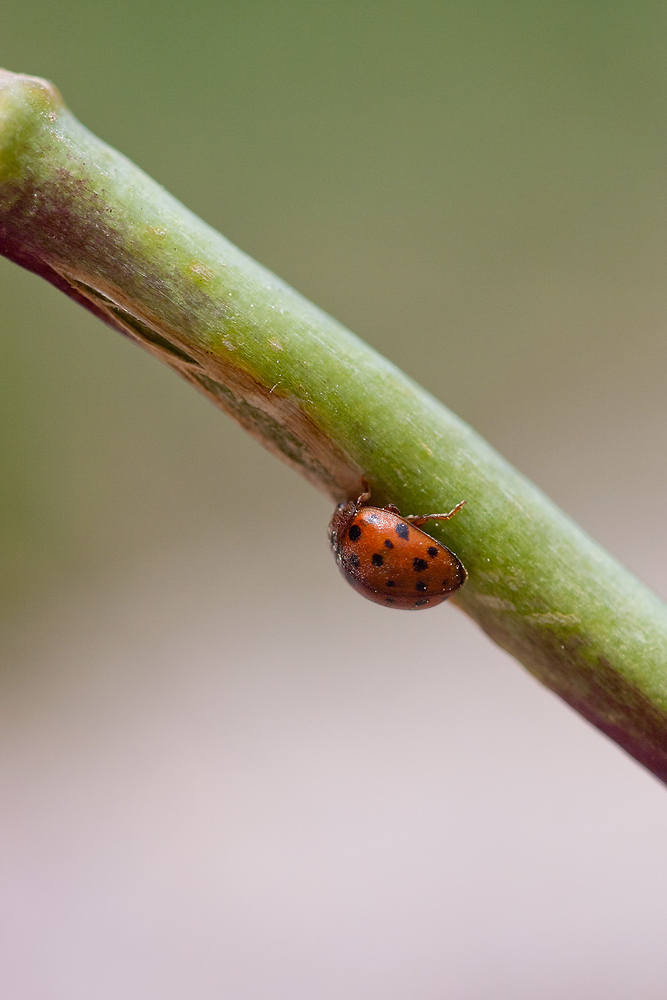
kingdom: Animalia
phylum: Arthropoda
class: Insecta
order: Coleoptera
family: Coccinellidae
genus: Subcoccinella
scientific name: Subcoccinella vigintiquatuorpunctata
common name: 24-spot ladybird
